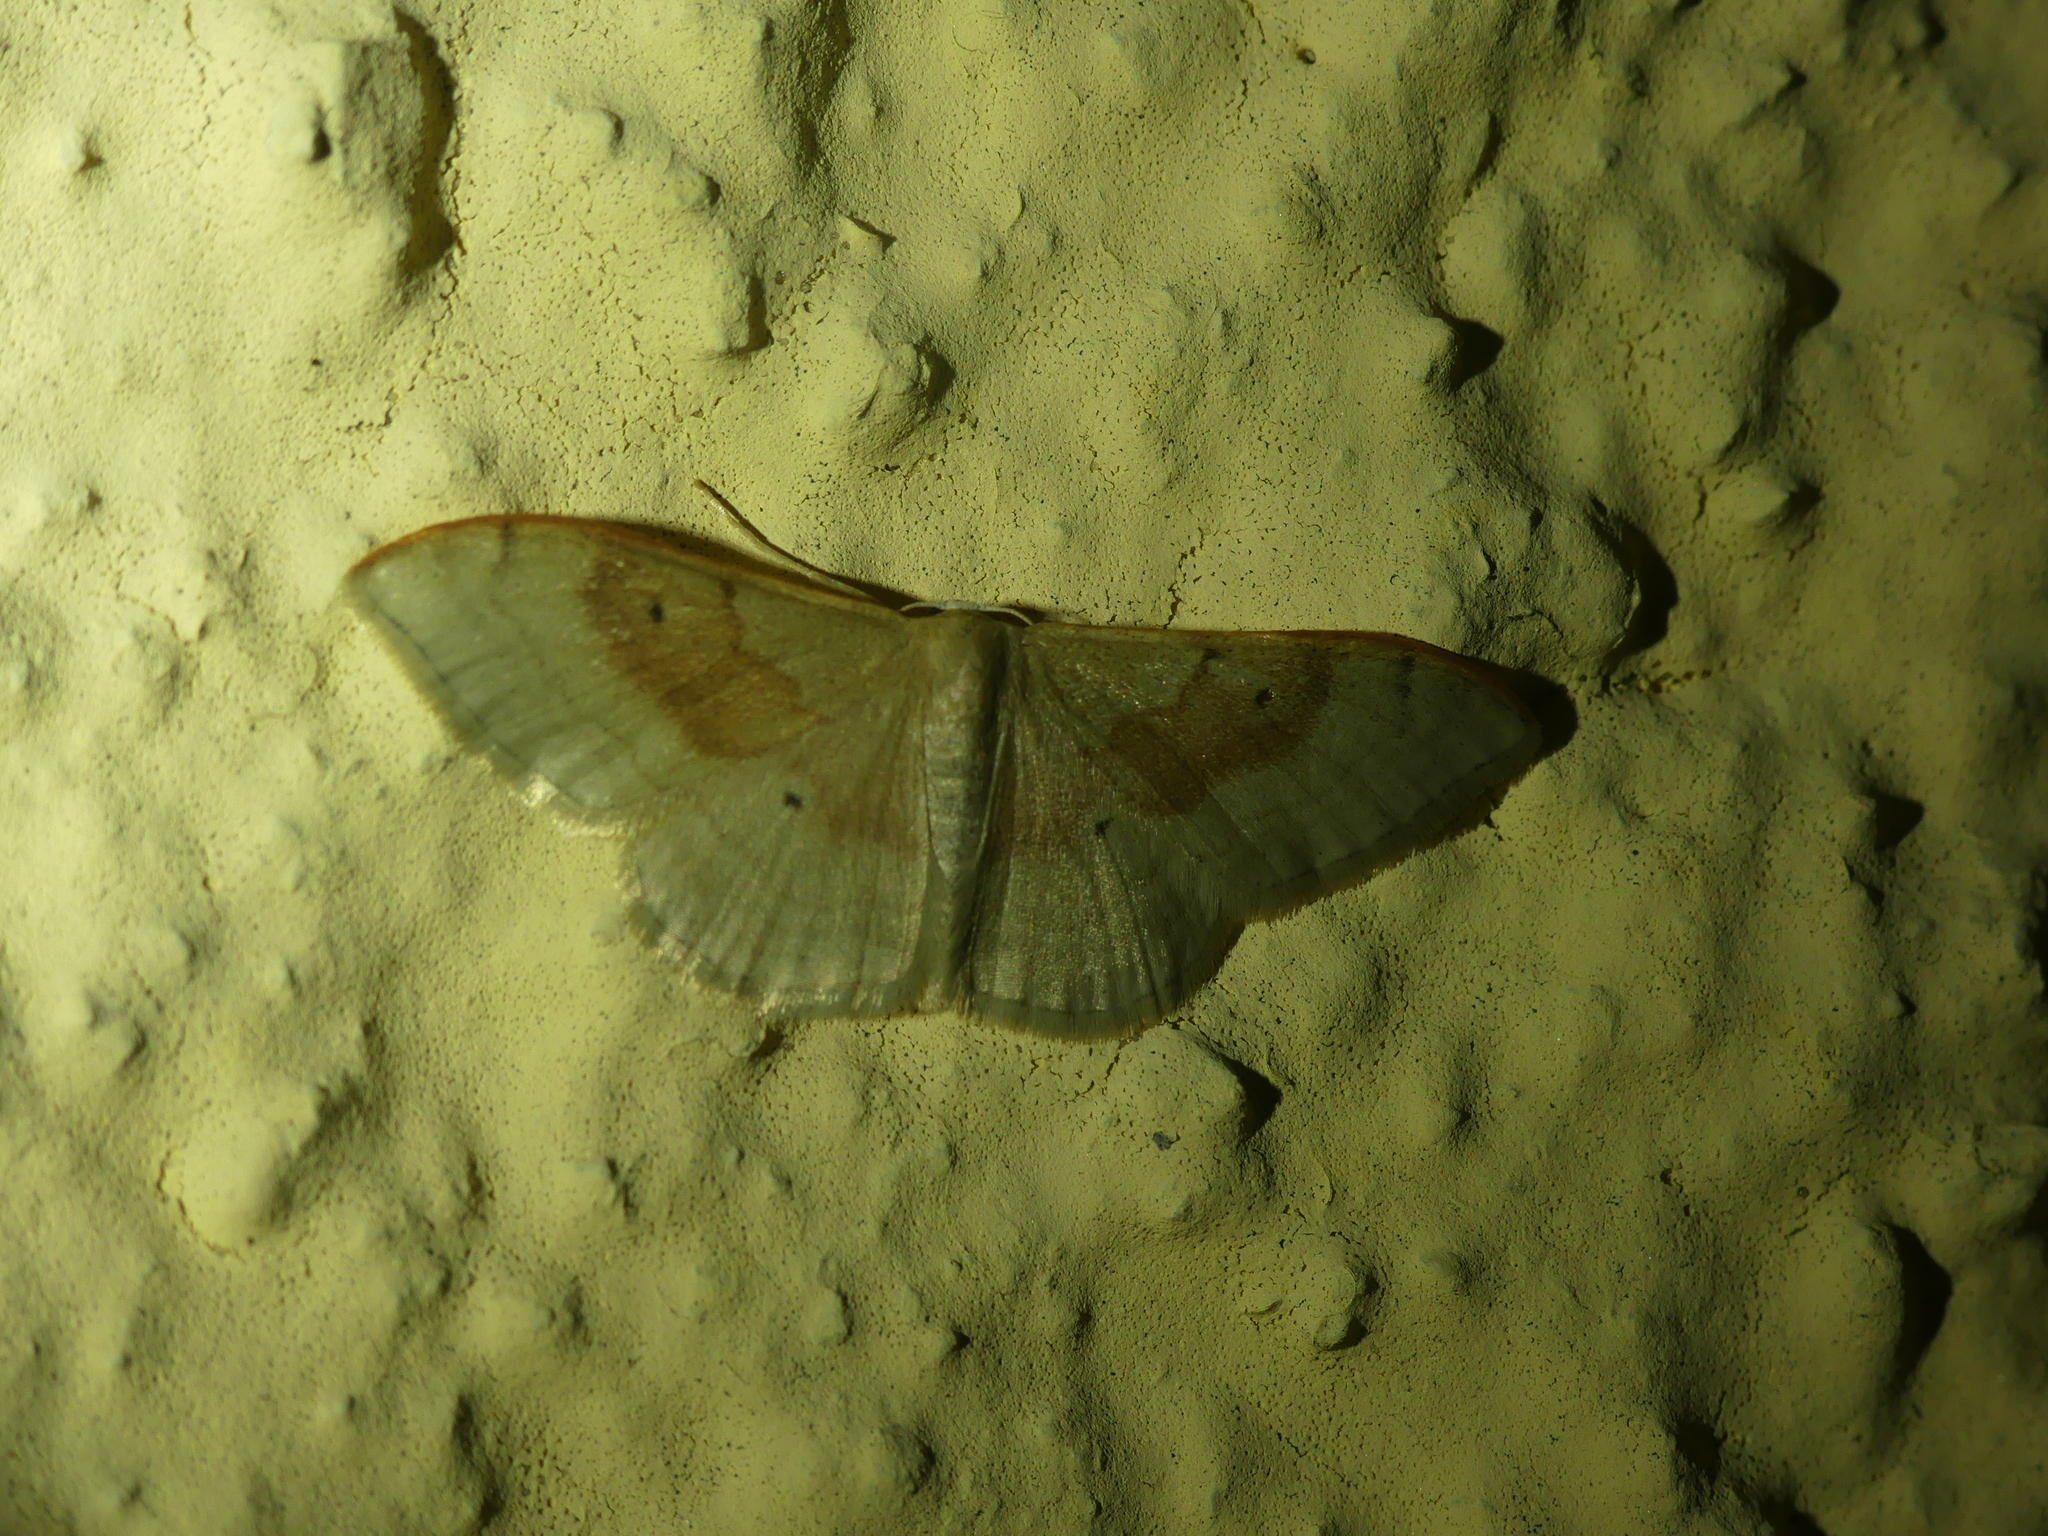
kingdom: Animalia
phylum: Arthropoda
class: Insecta
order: Lepidoptera
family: Geometridae
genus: Idaea
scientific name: Idaea degeneraria
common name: Portland ribbon wave
